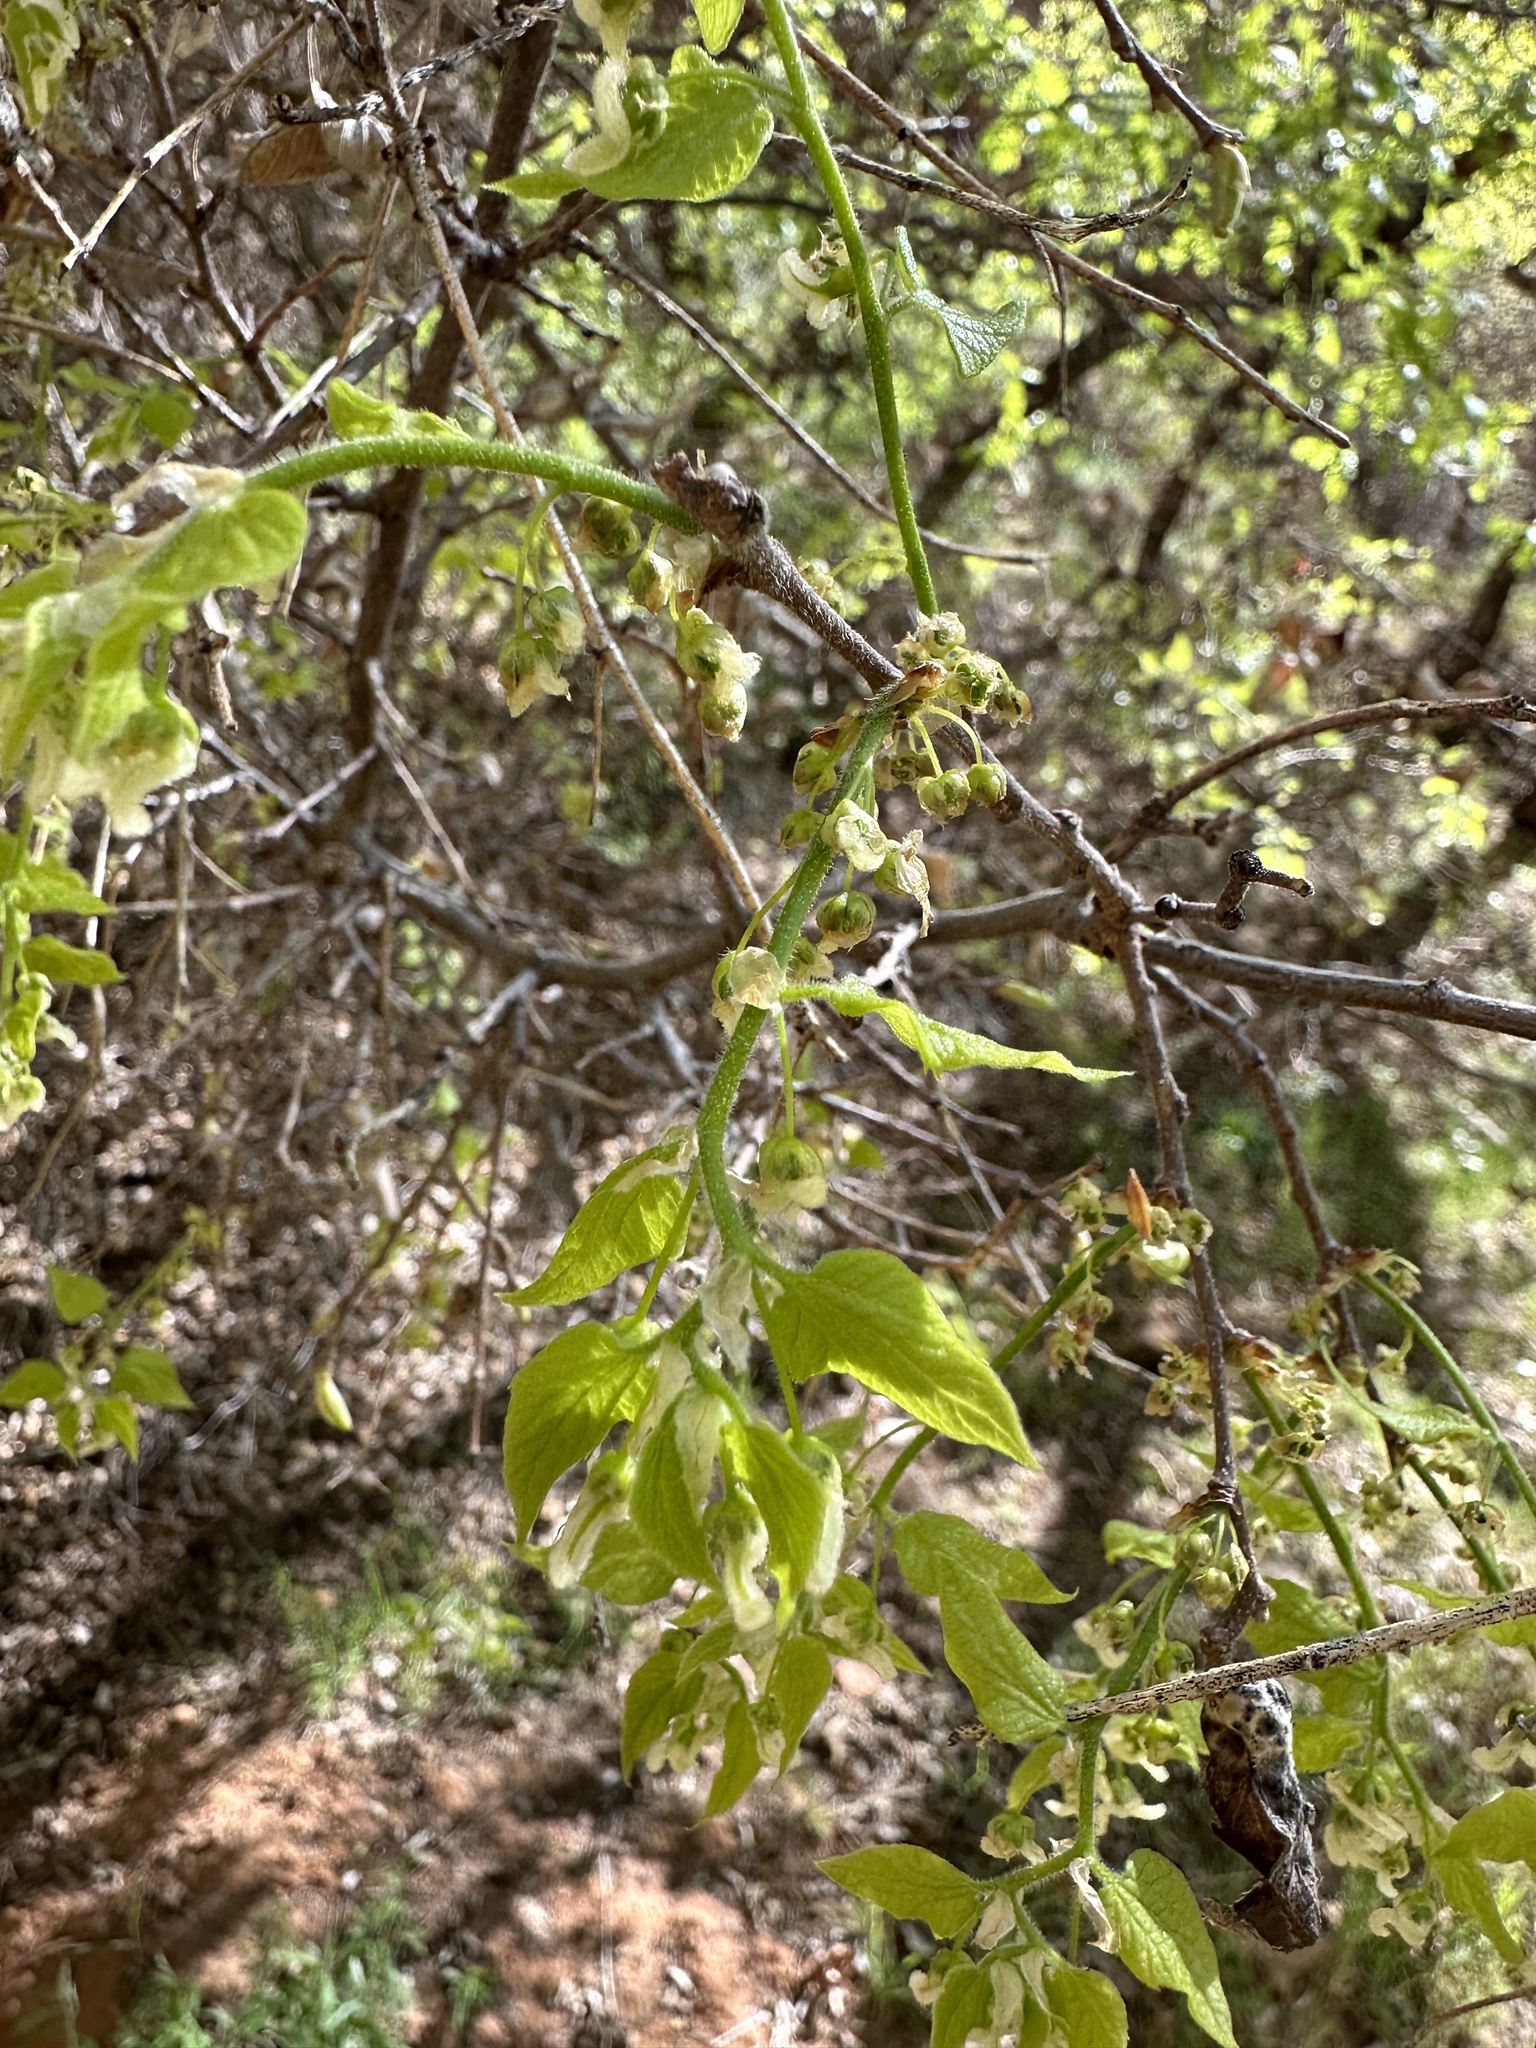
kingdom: Plantae
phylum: Tracheophyta
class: Magnoliopsida
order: Rosales
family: Cannabaceae
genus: Celtis
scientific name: Celtis reticulata
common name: Netleaf hackberry
